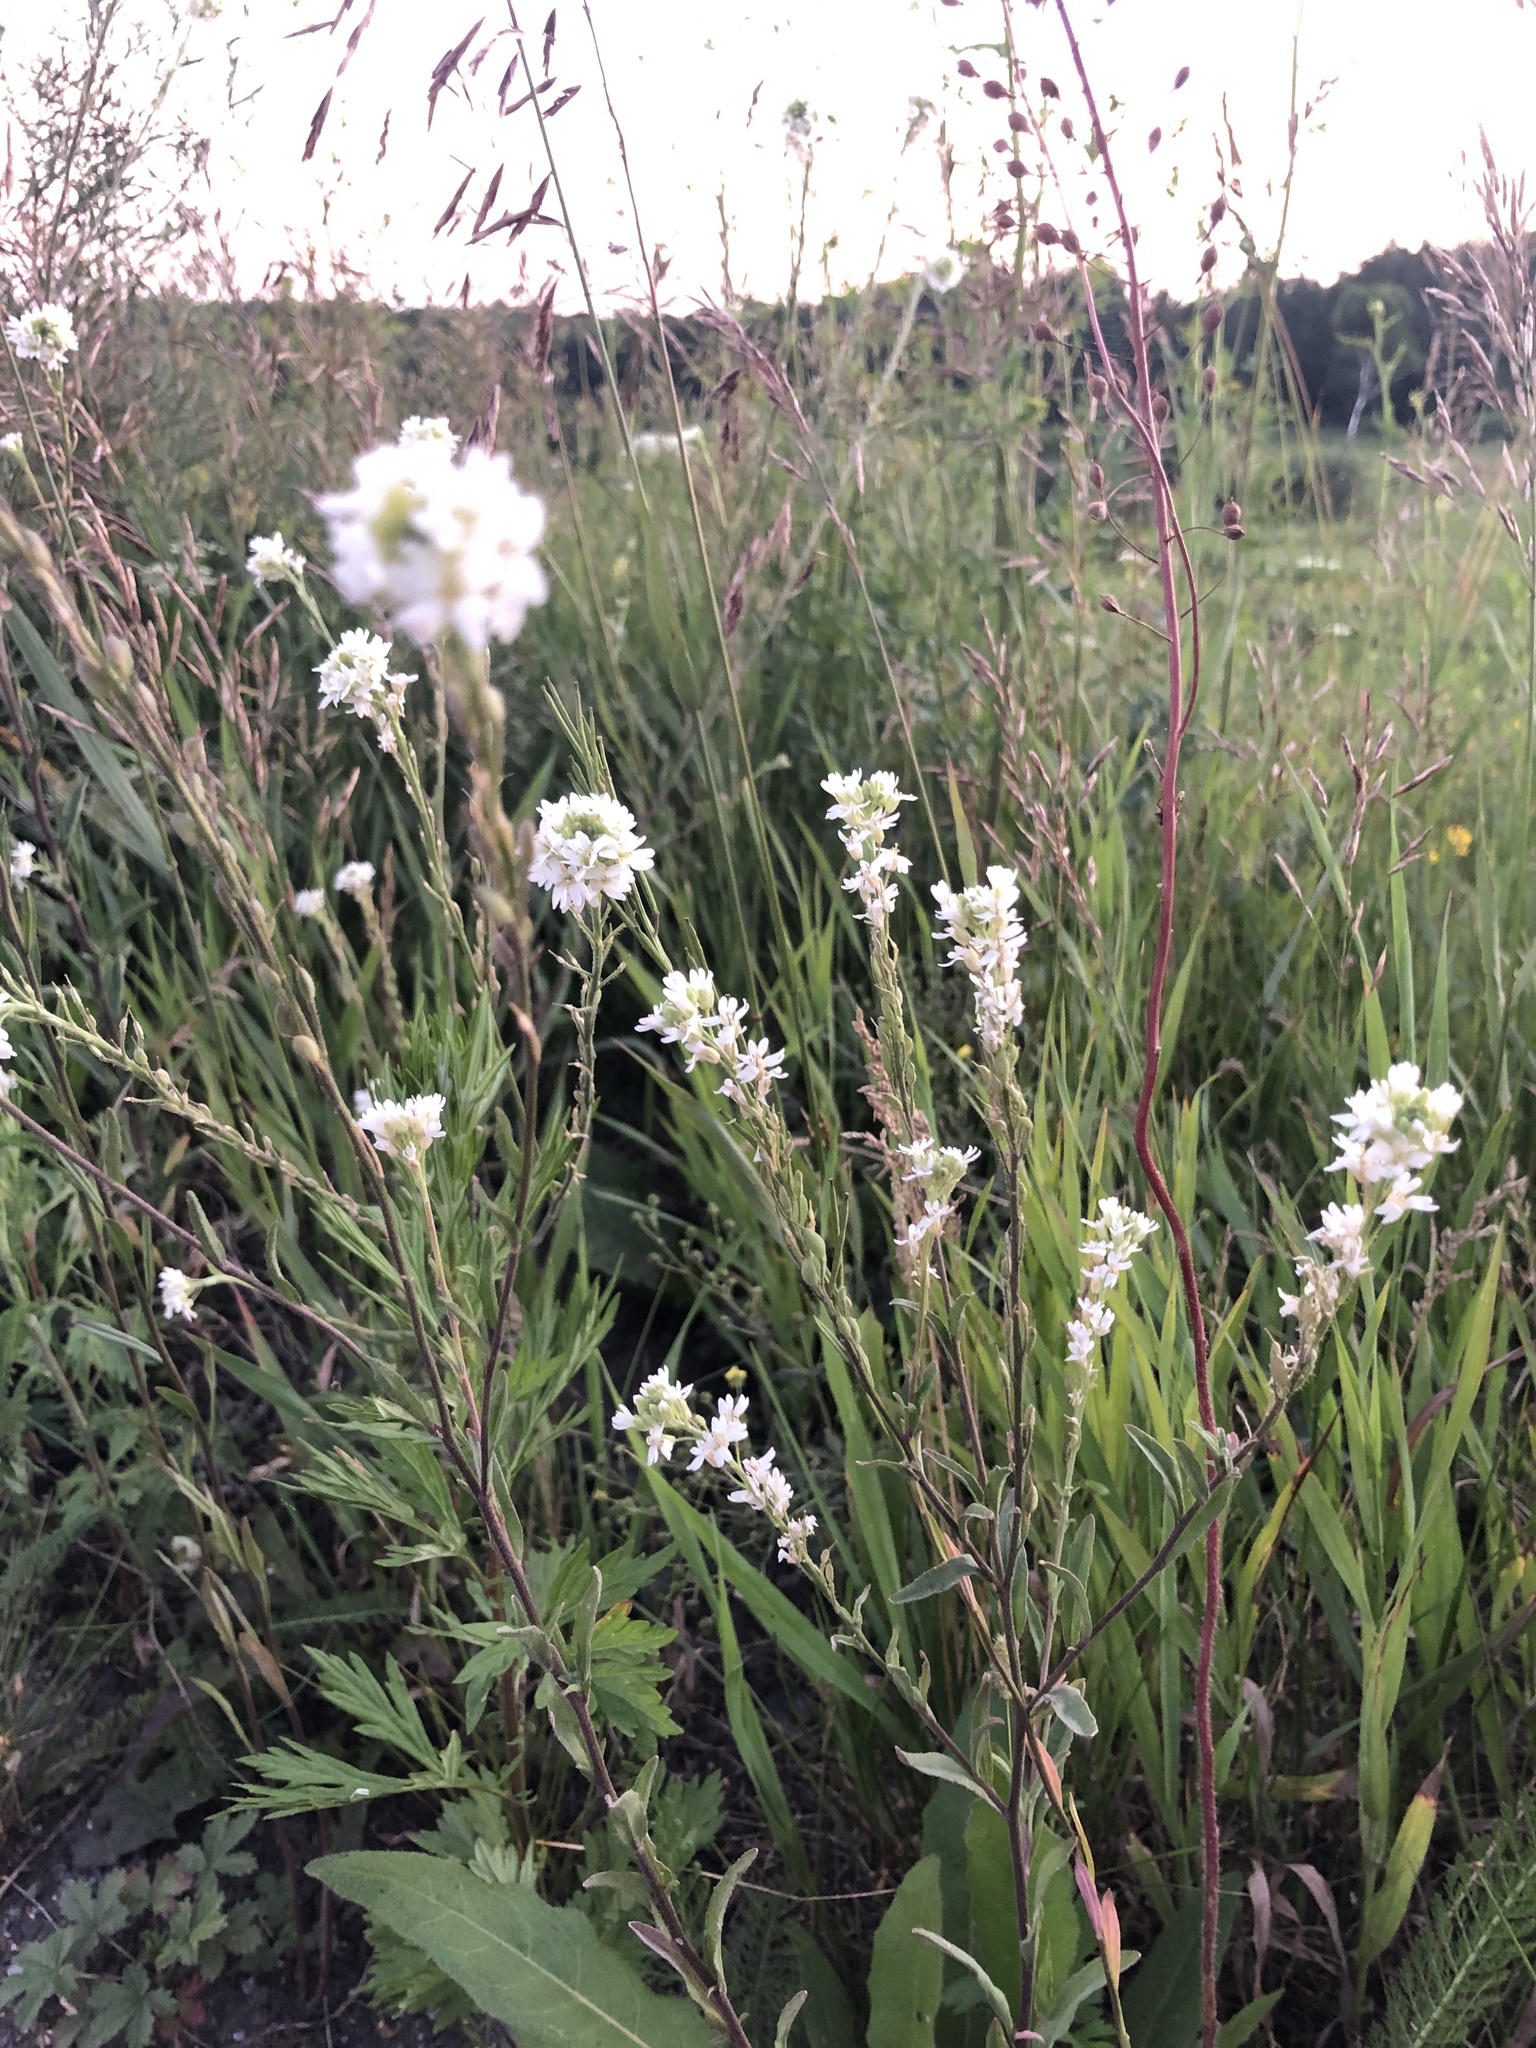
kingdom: Plantae
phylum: Tracheophyta
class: Magnoliopsida
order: Brassicales
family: Brassicaceae
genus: Berteroa
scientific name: Berteroa incana
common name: Hoary alison
